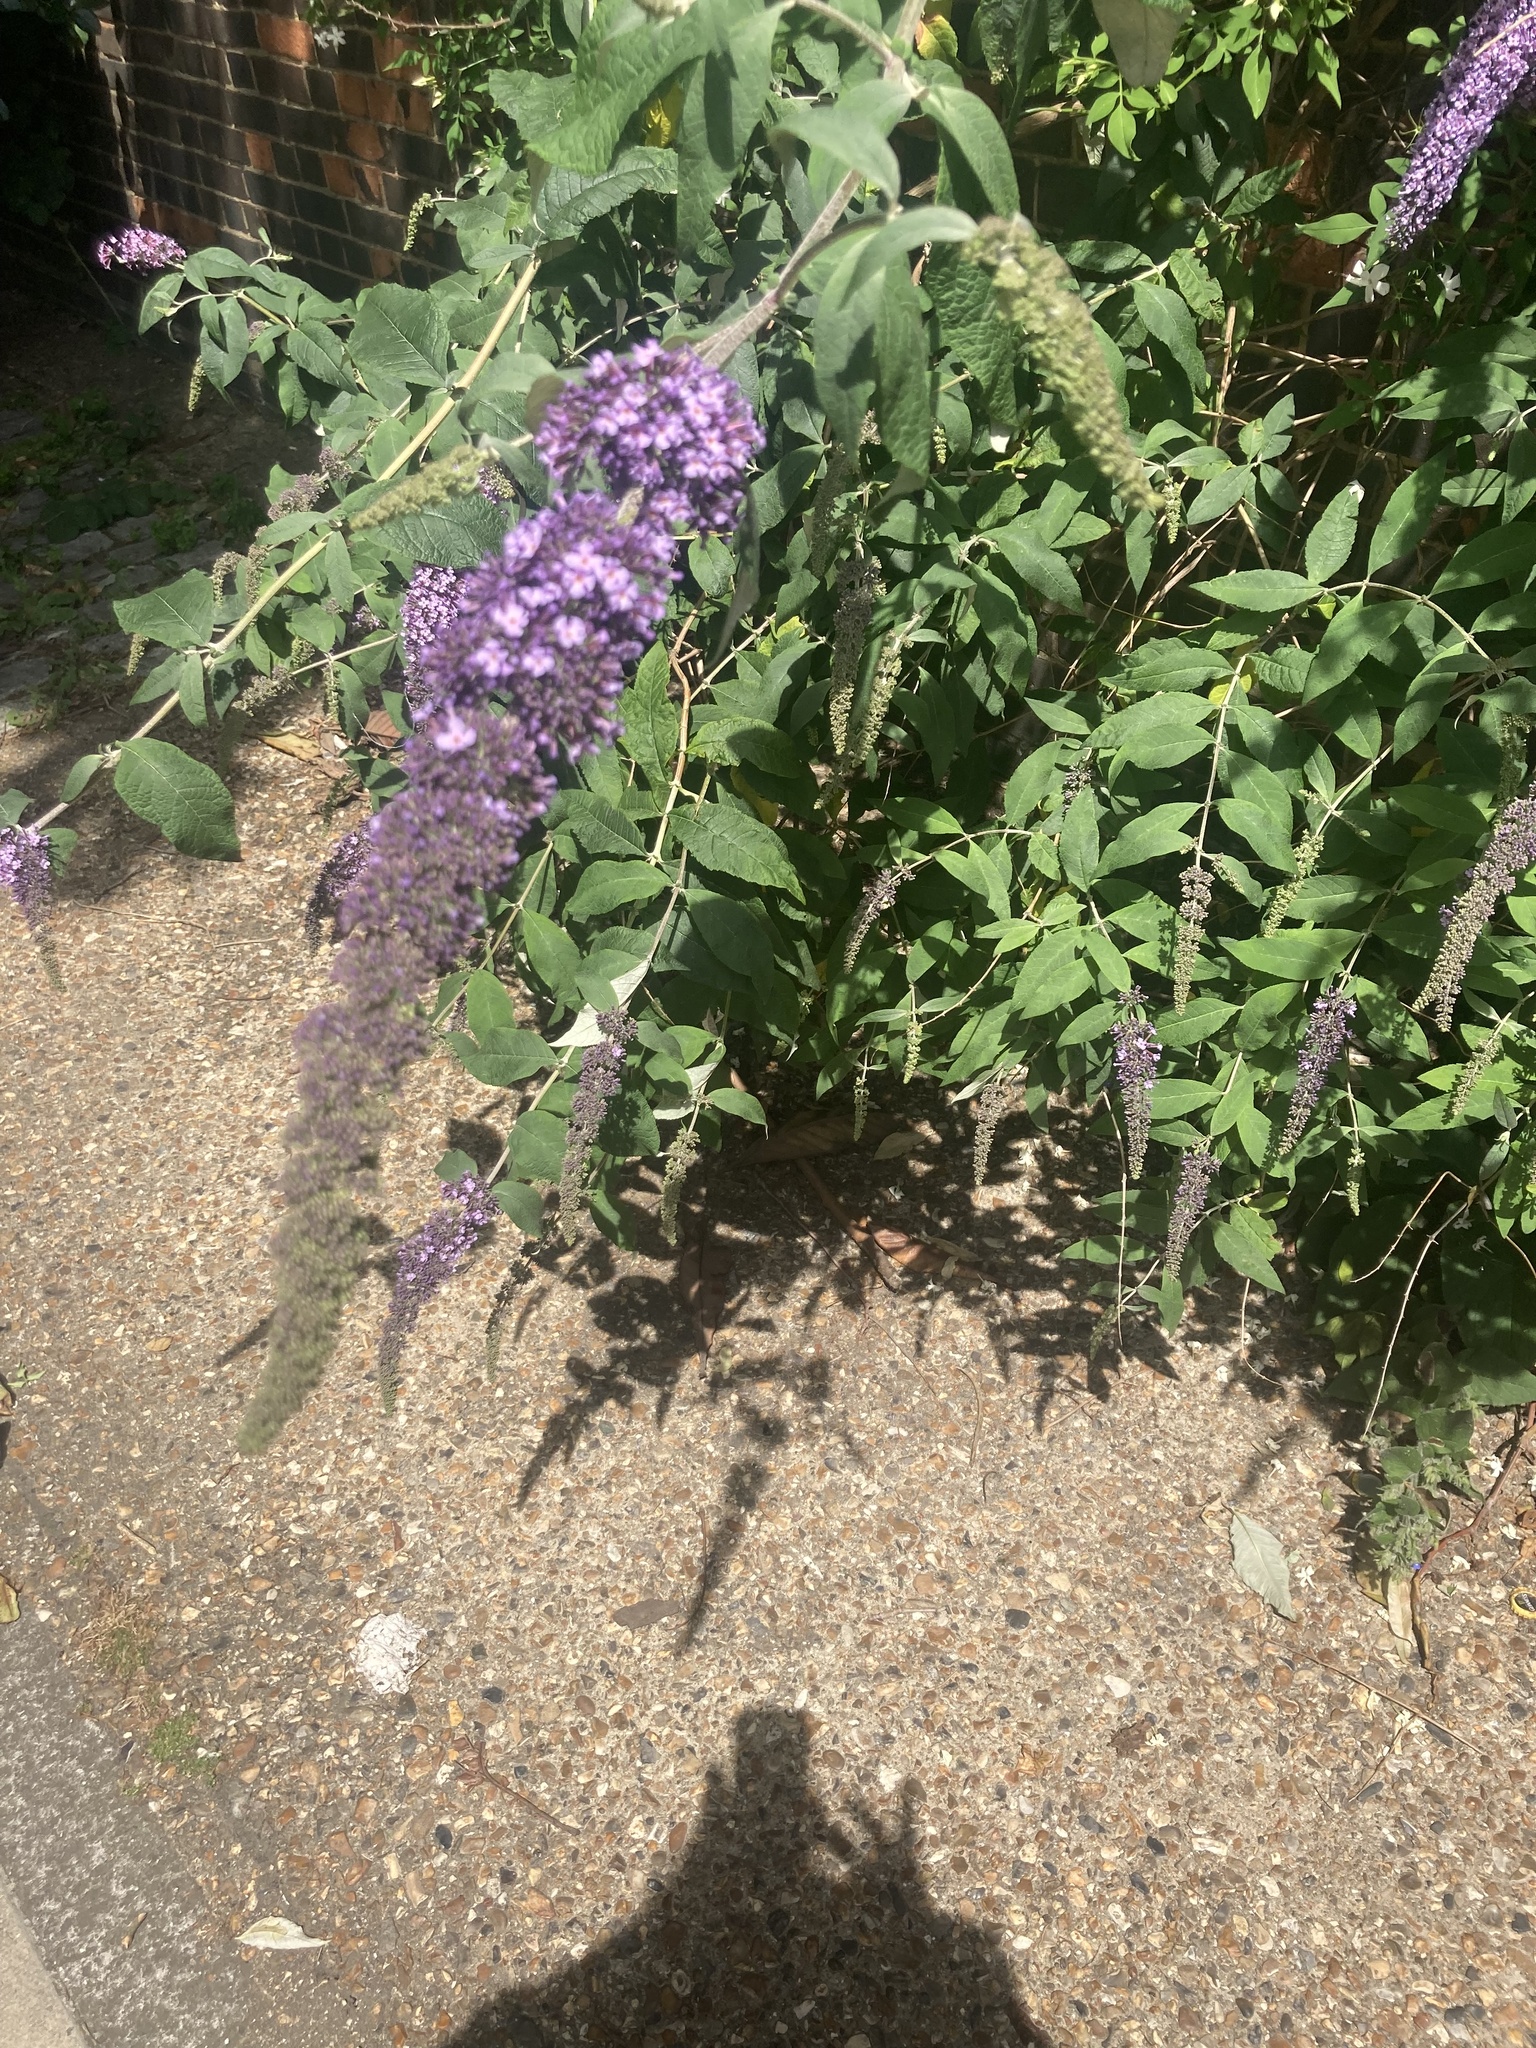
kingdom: Plantae
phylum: Tracheophyta
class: Magnoliopsida
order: Lamiales
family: Scrophulariaceae
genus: Buddleja
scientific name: Buddleja davidii
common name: Butterfly-bush
